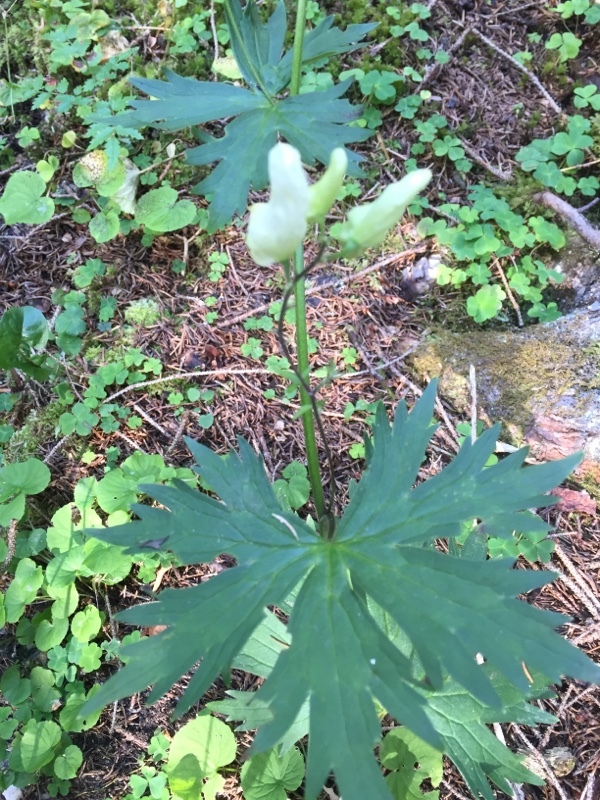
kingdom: Plantae
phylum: Tracheophyta
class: Magnoliopsida
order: Ranunculales
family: Ranunculaceae
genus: Aconitum
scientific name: Aconitum lycoctonum
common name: Wolf's-bane
